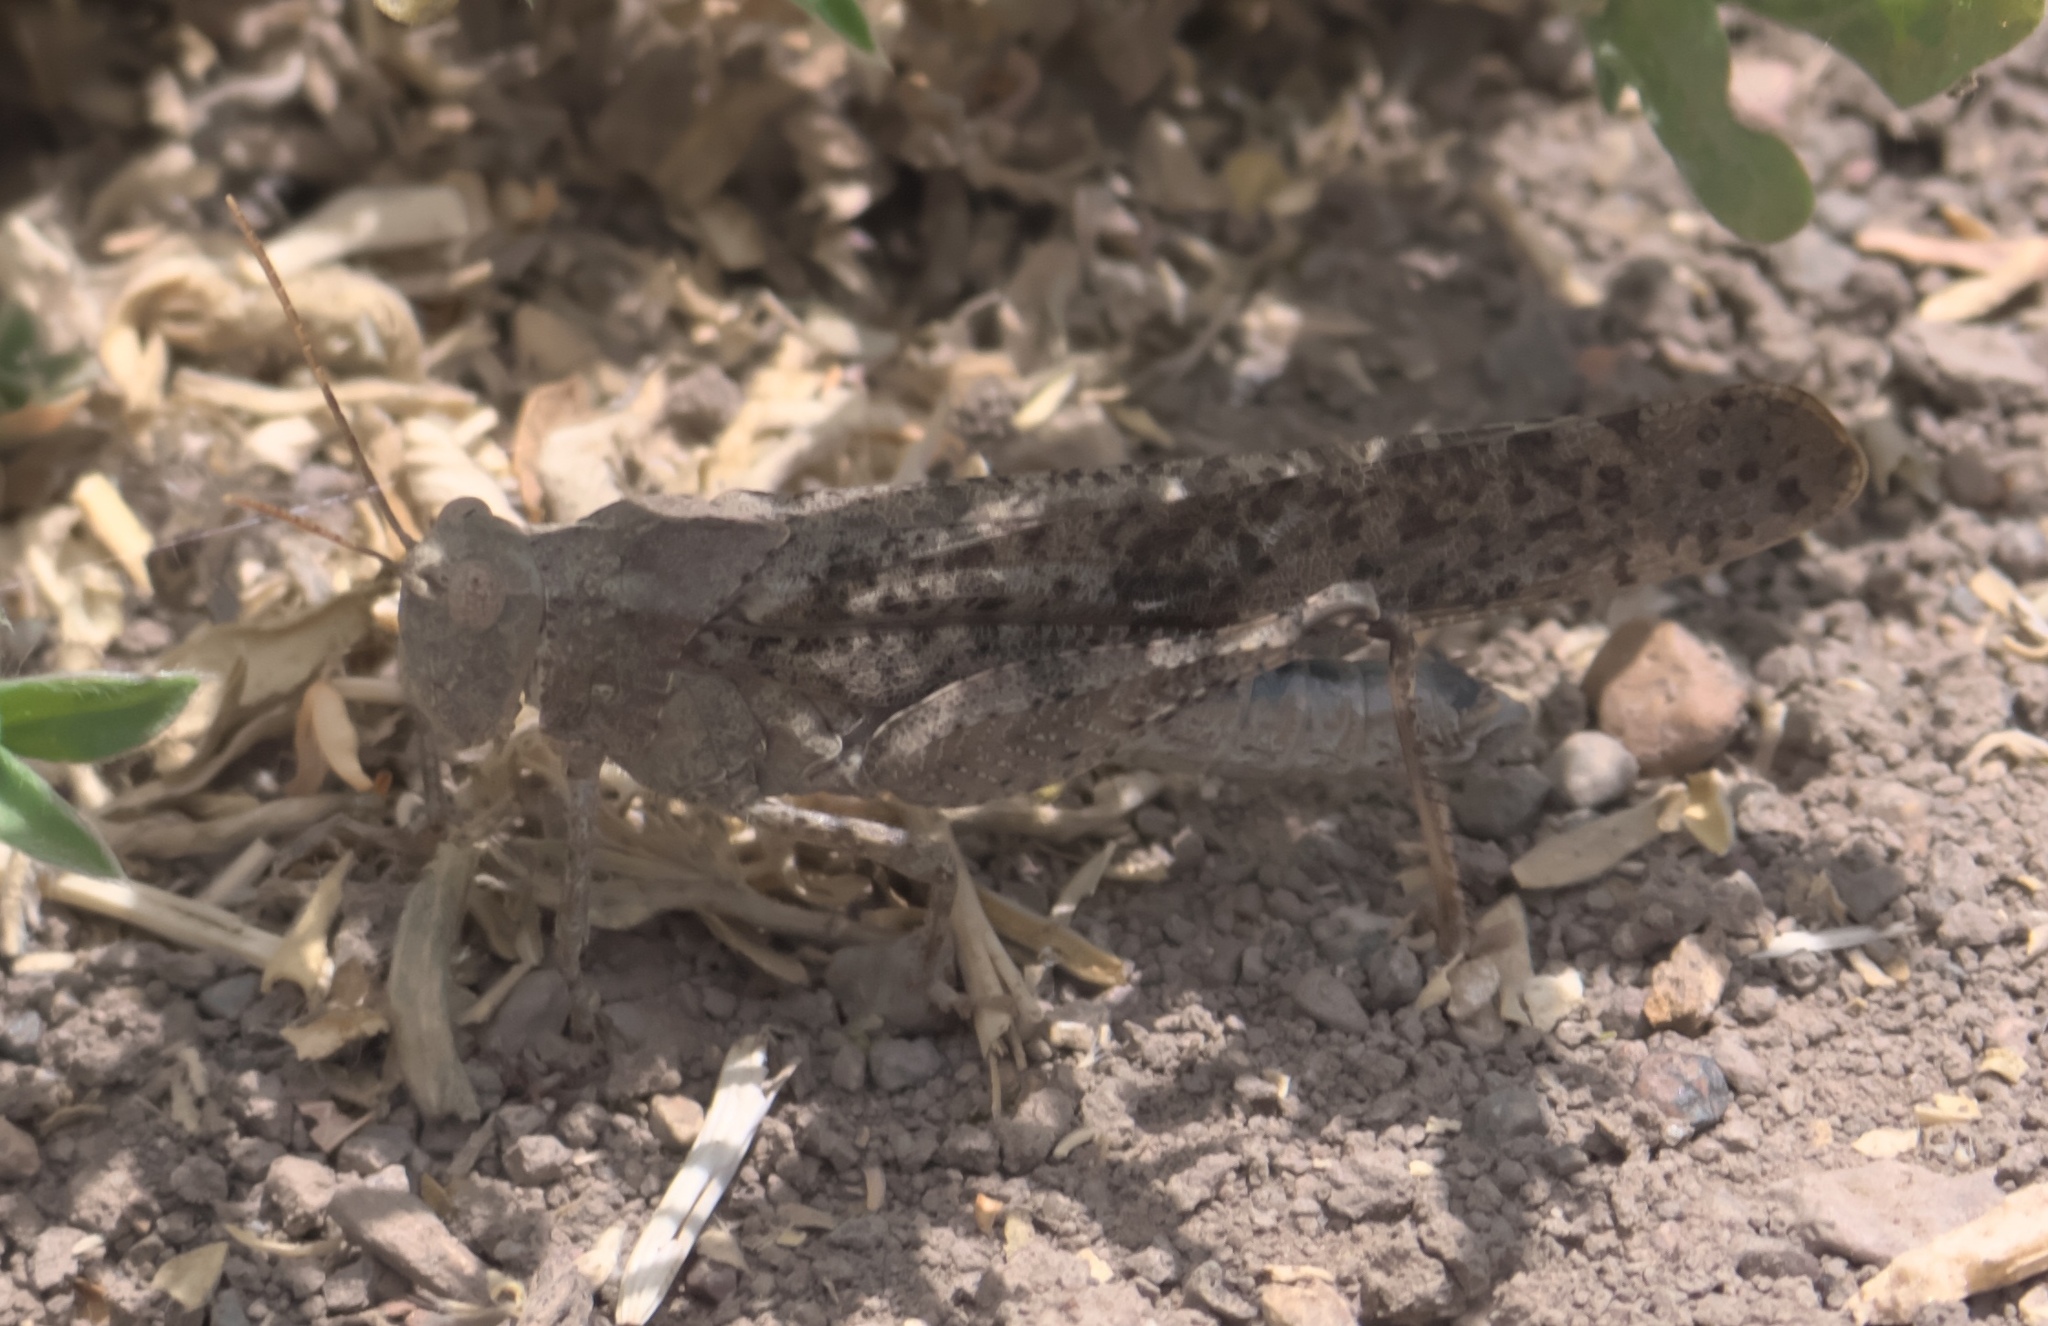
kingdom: Animalia
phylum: Arthropoda
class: Insecta
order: Orthoptera
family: Acrididae
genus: Dissosteira
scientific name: Dissosteira carolina
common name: Carolina grasshopper
